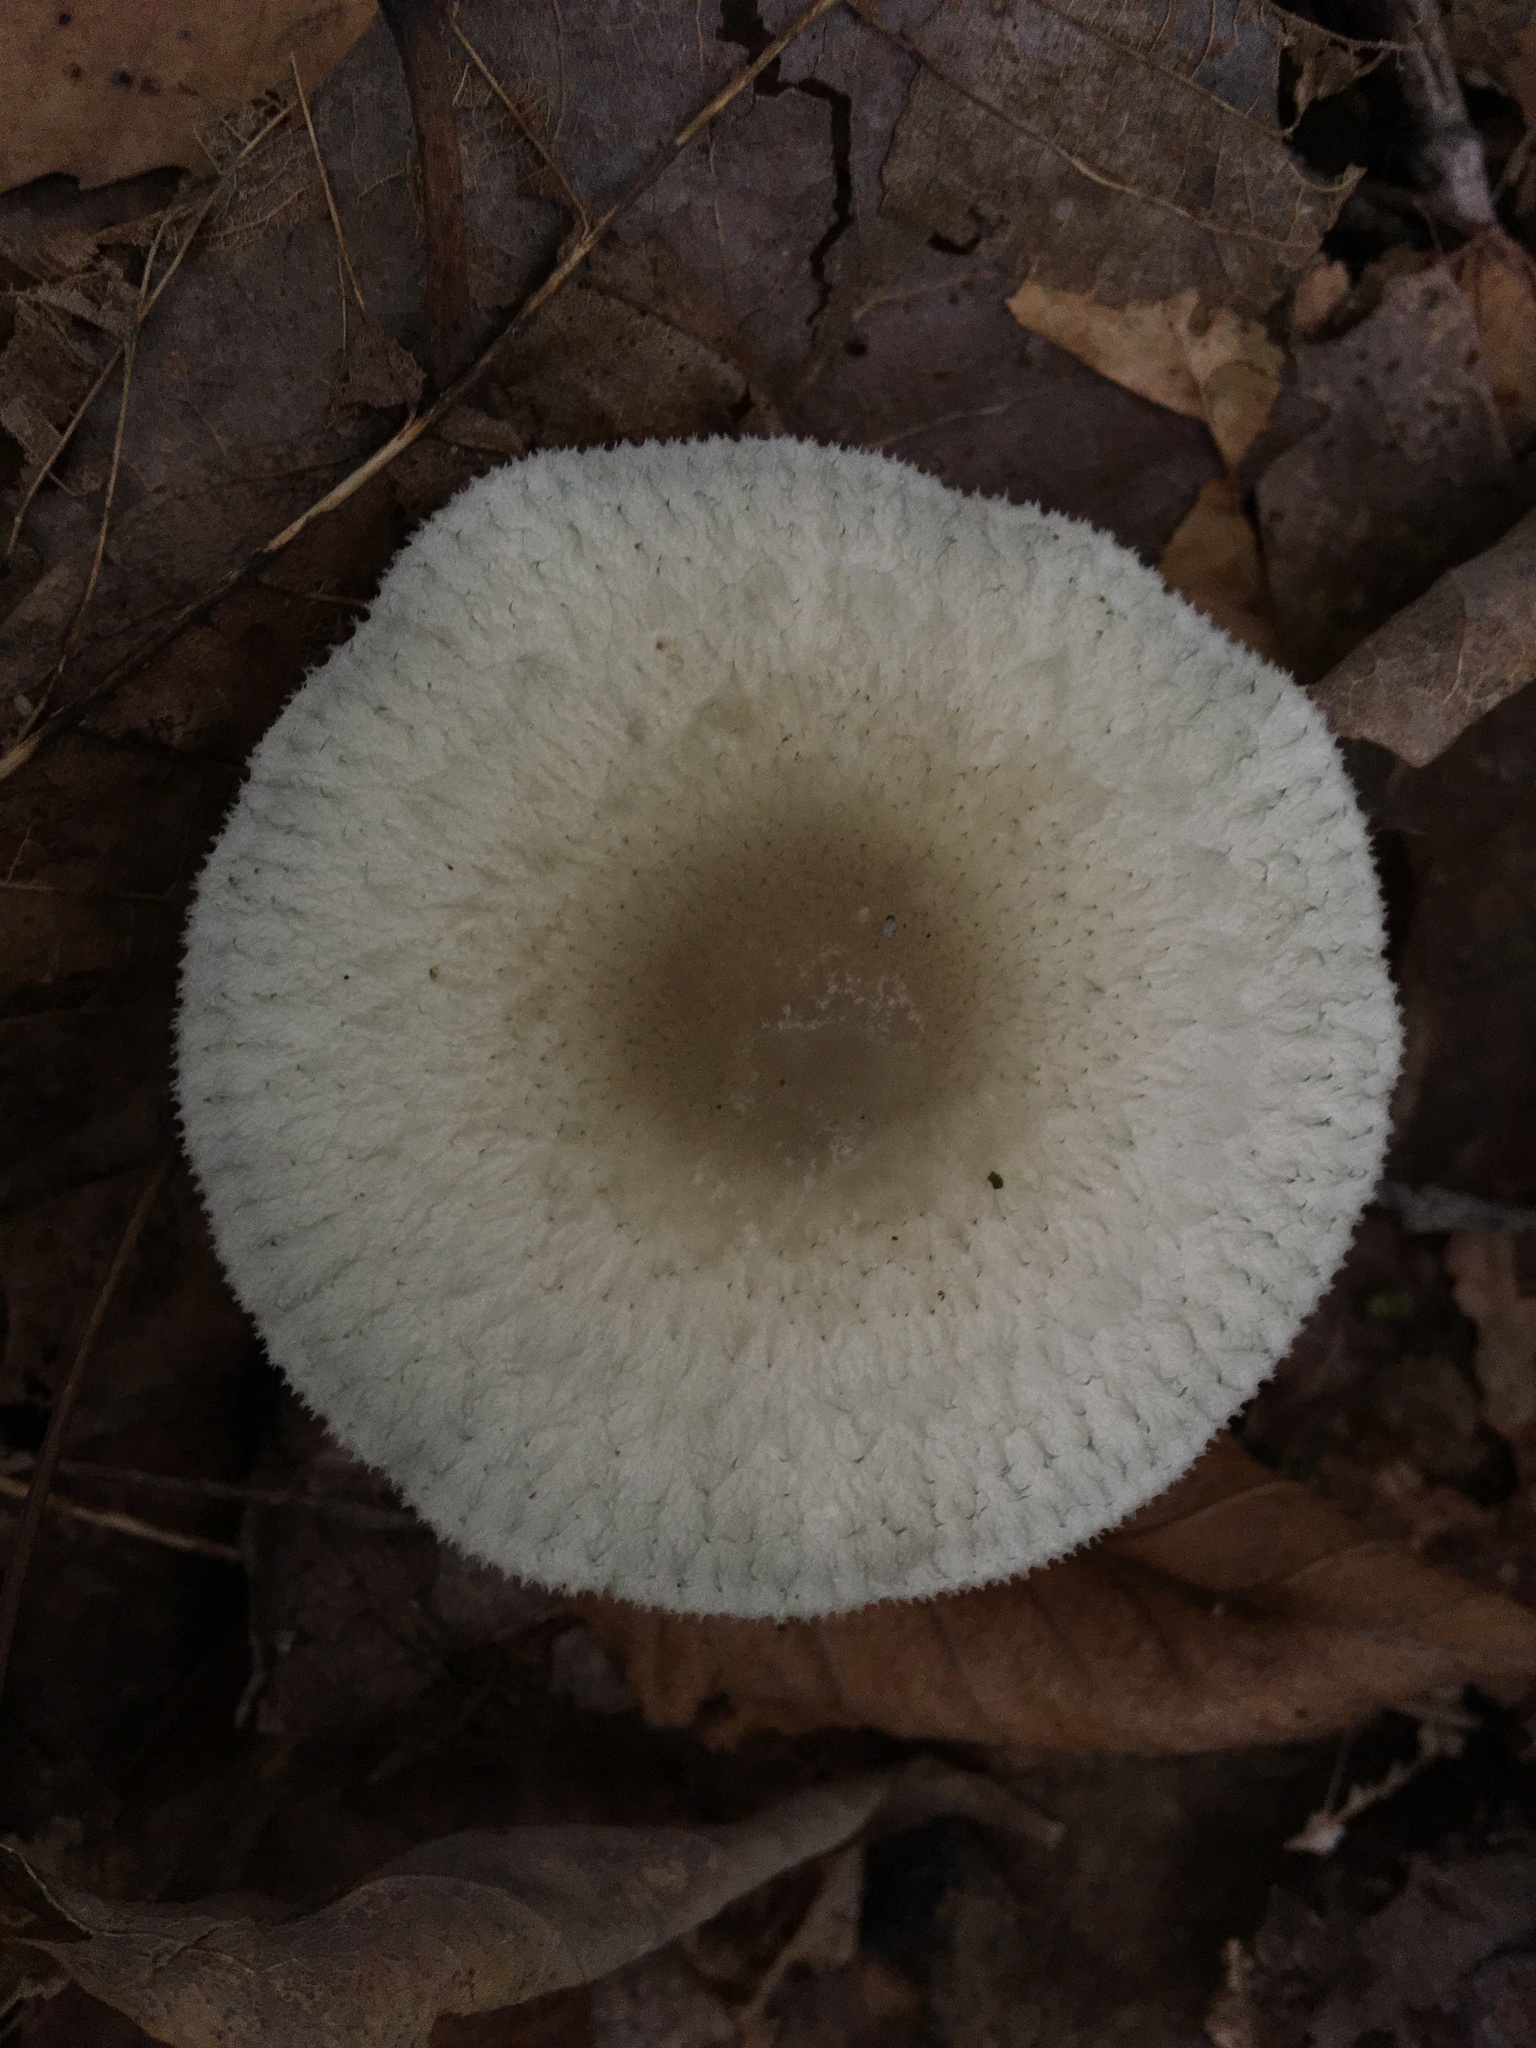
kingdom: Fungi
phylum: Basidiomycota
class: Agaricomycetes
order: Agaricales
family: Tricholomataceae
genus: Collybia
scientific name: Collybia
